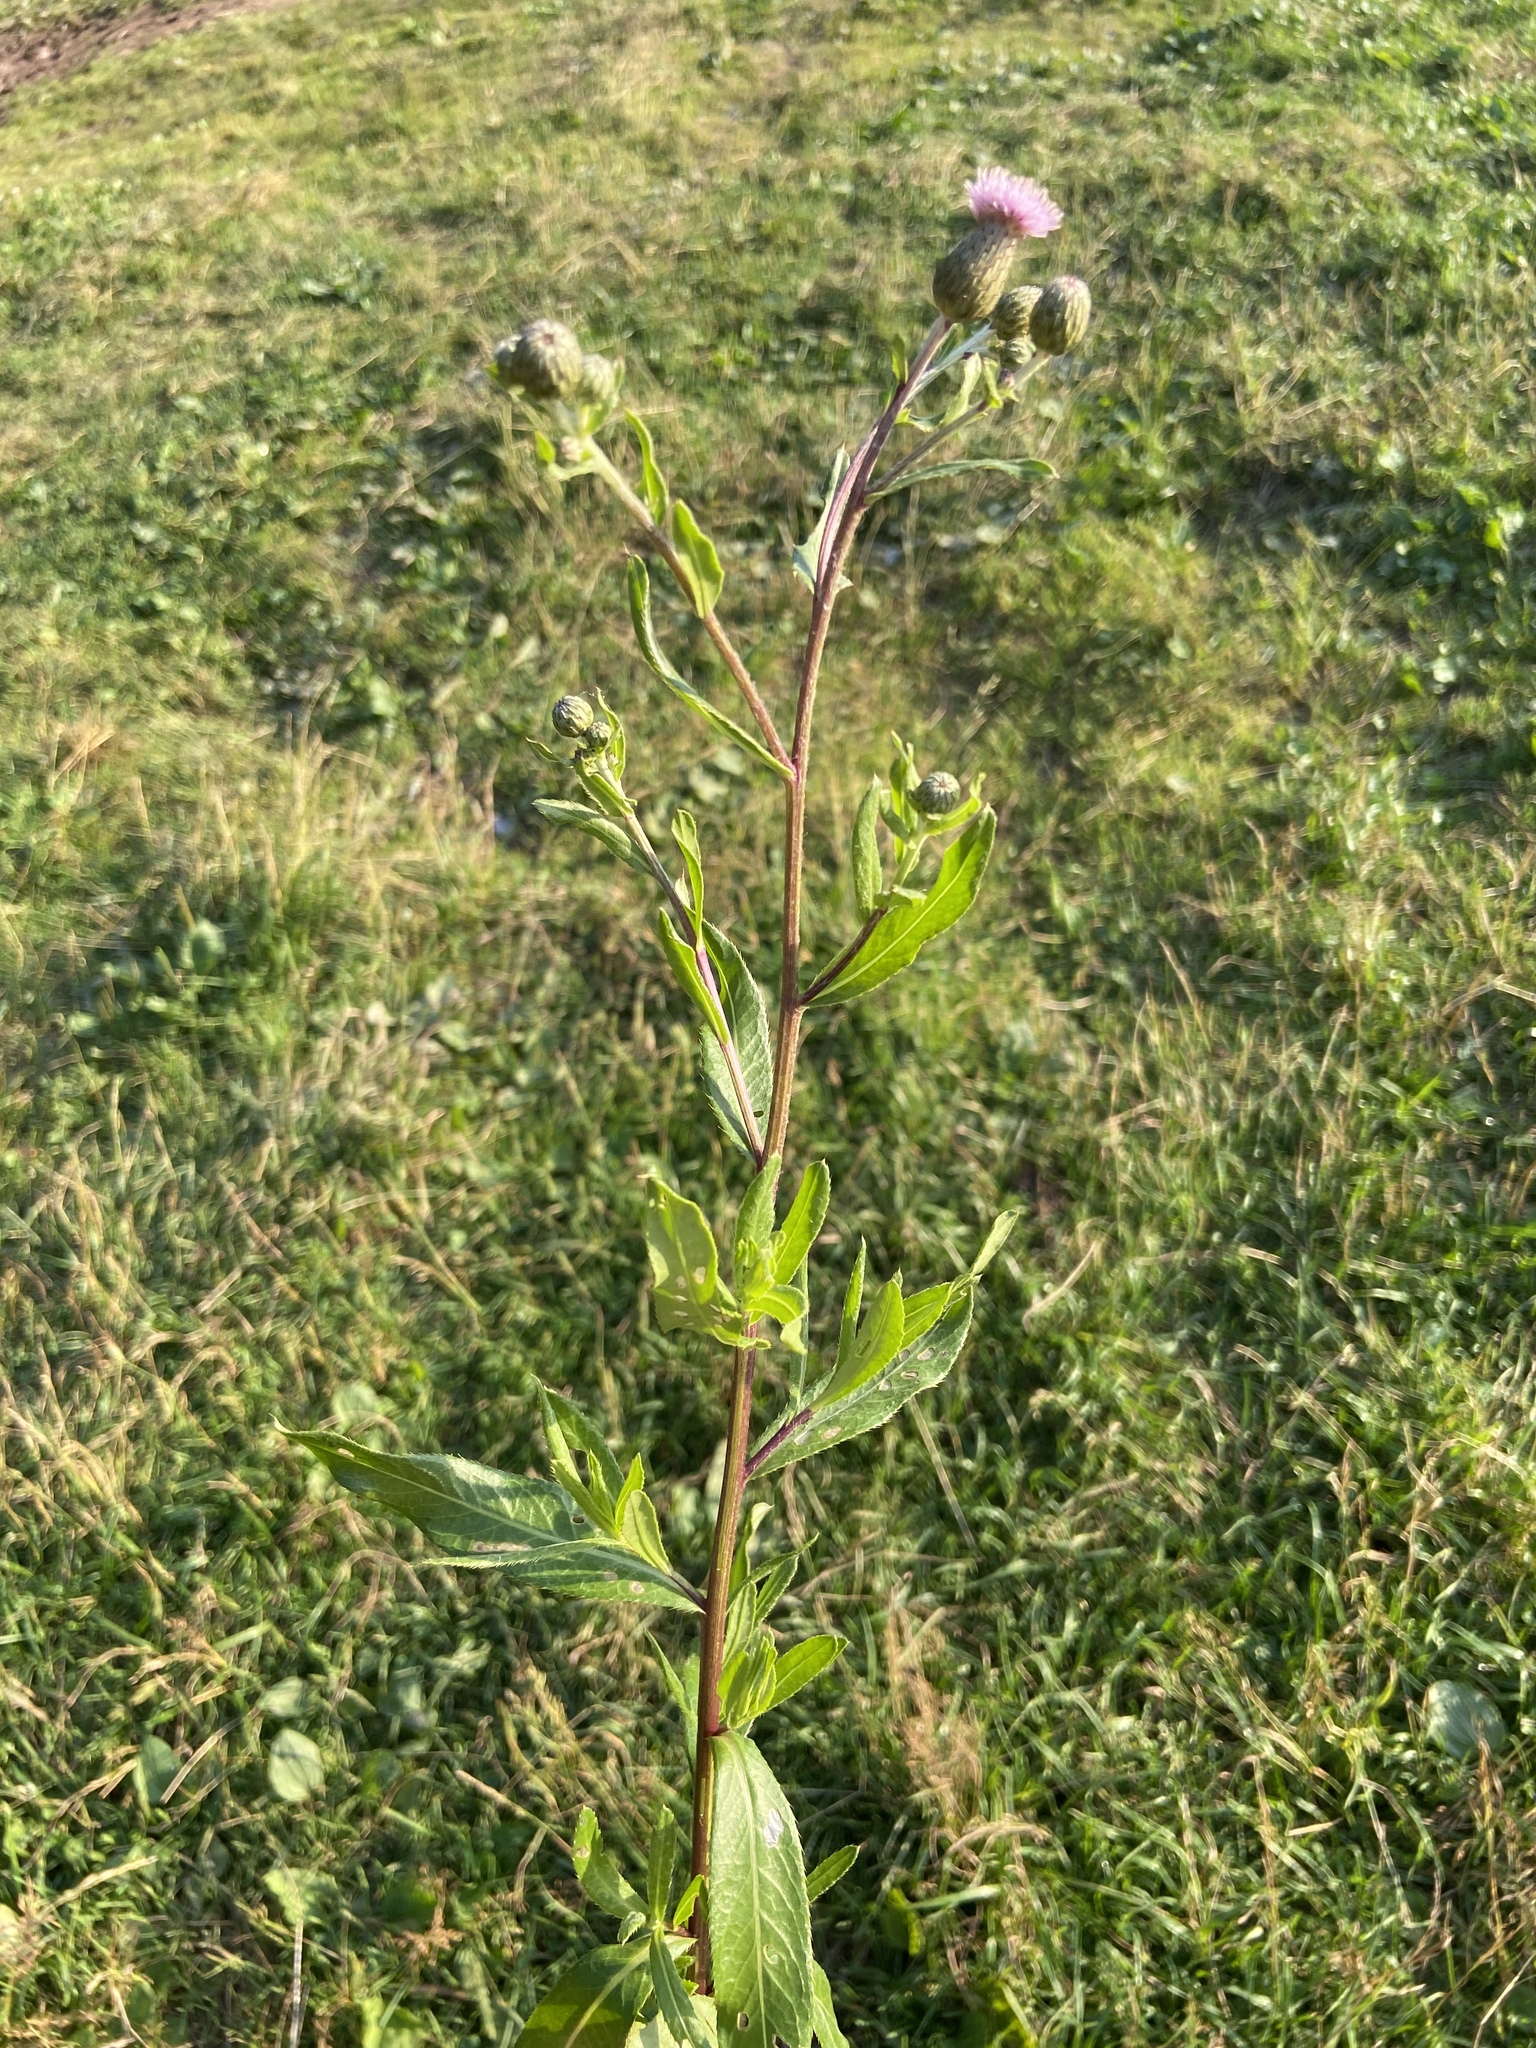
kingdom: Plantae
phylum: Tracheophyta
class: Magnoliopsida
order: Asterales
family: Asteraceae
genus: Cirsium
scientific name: Cirsium arvense
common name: Creeping thistle
